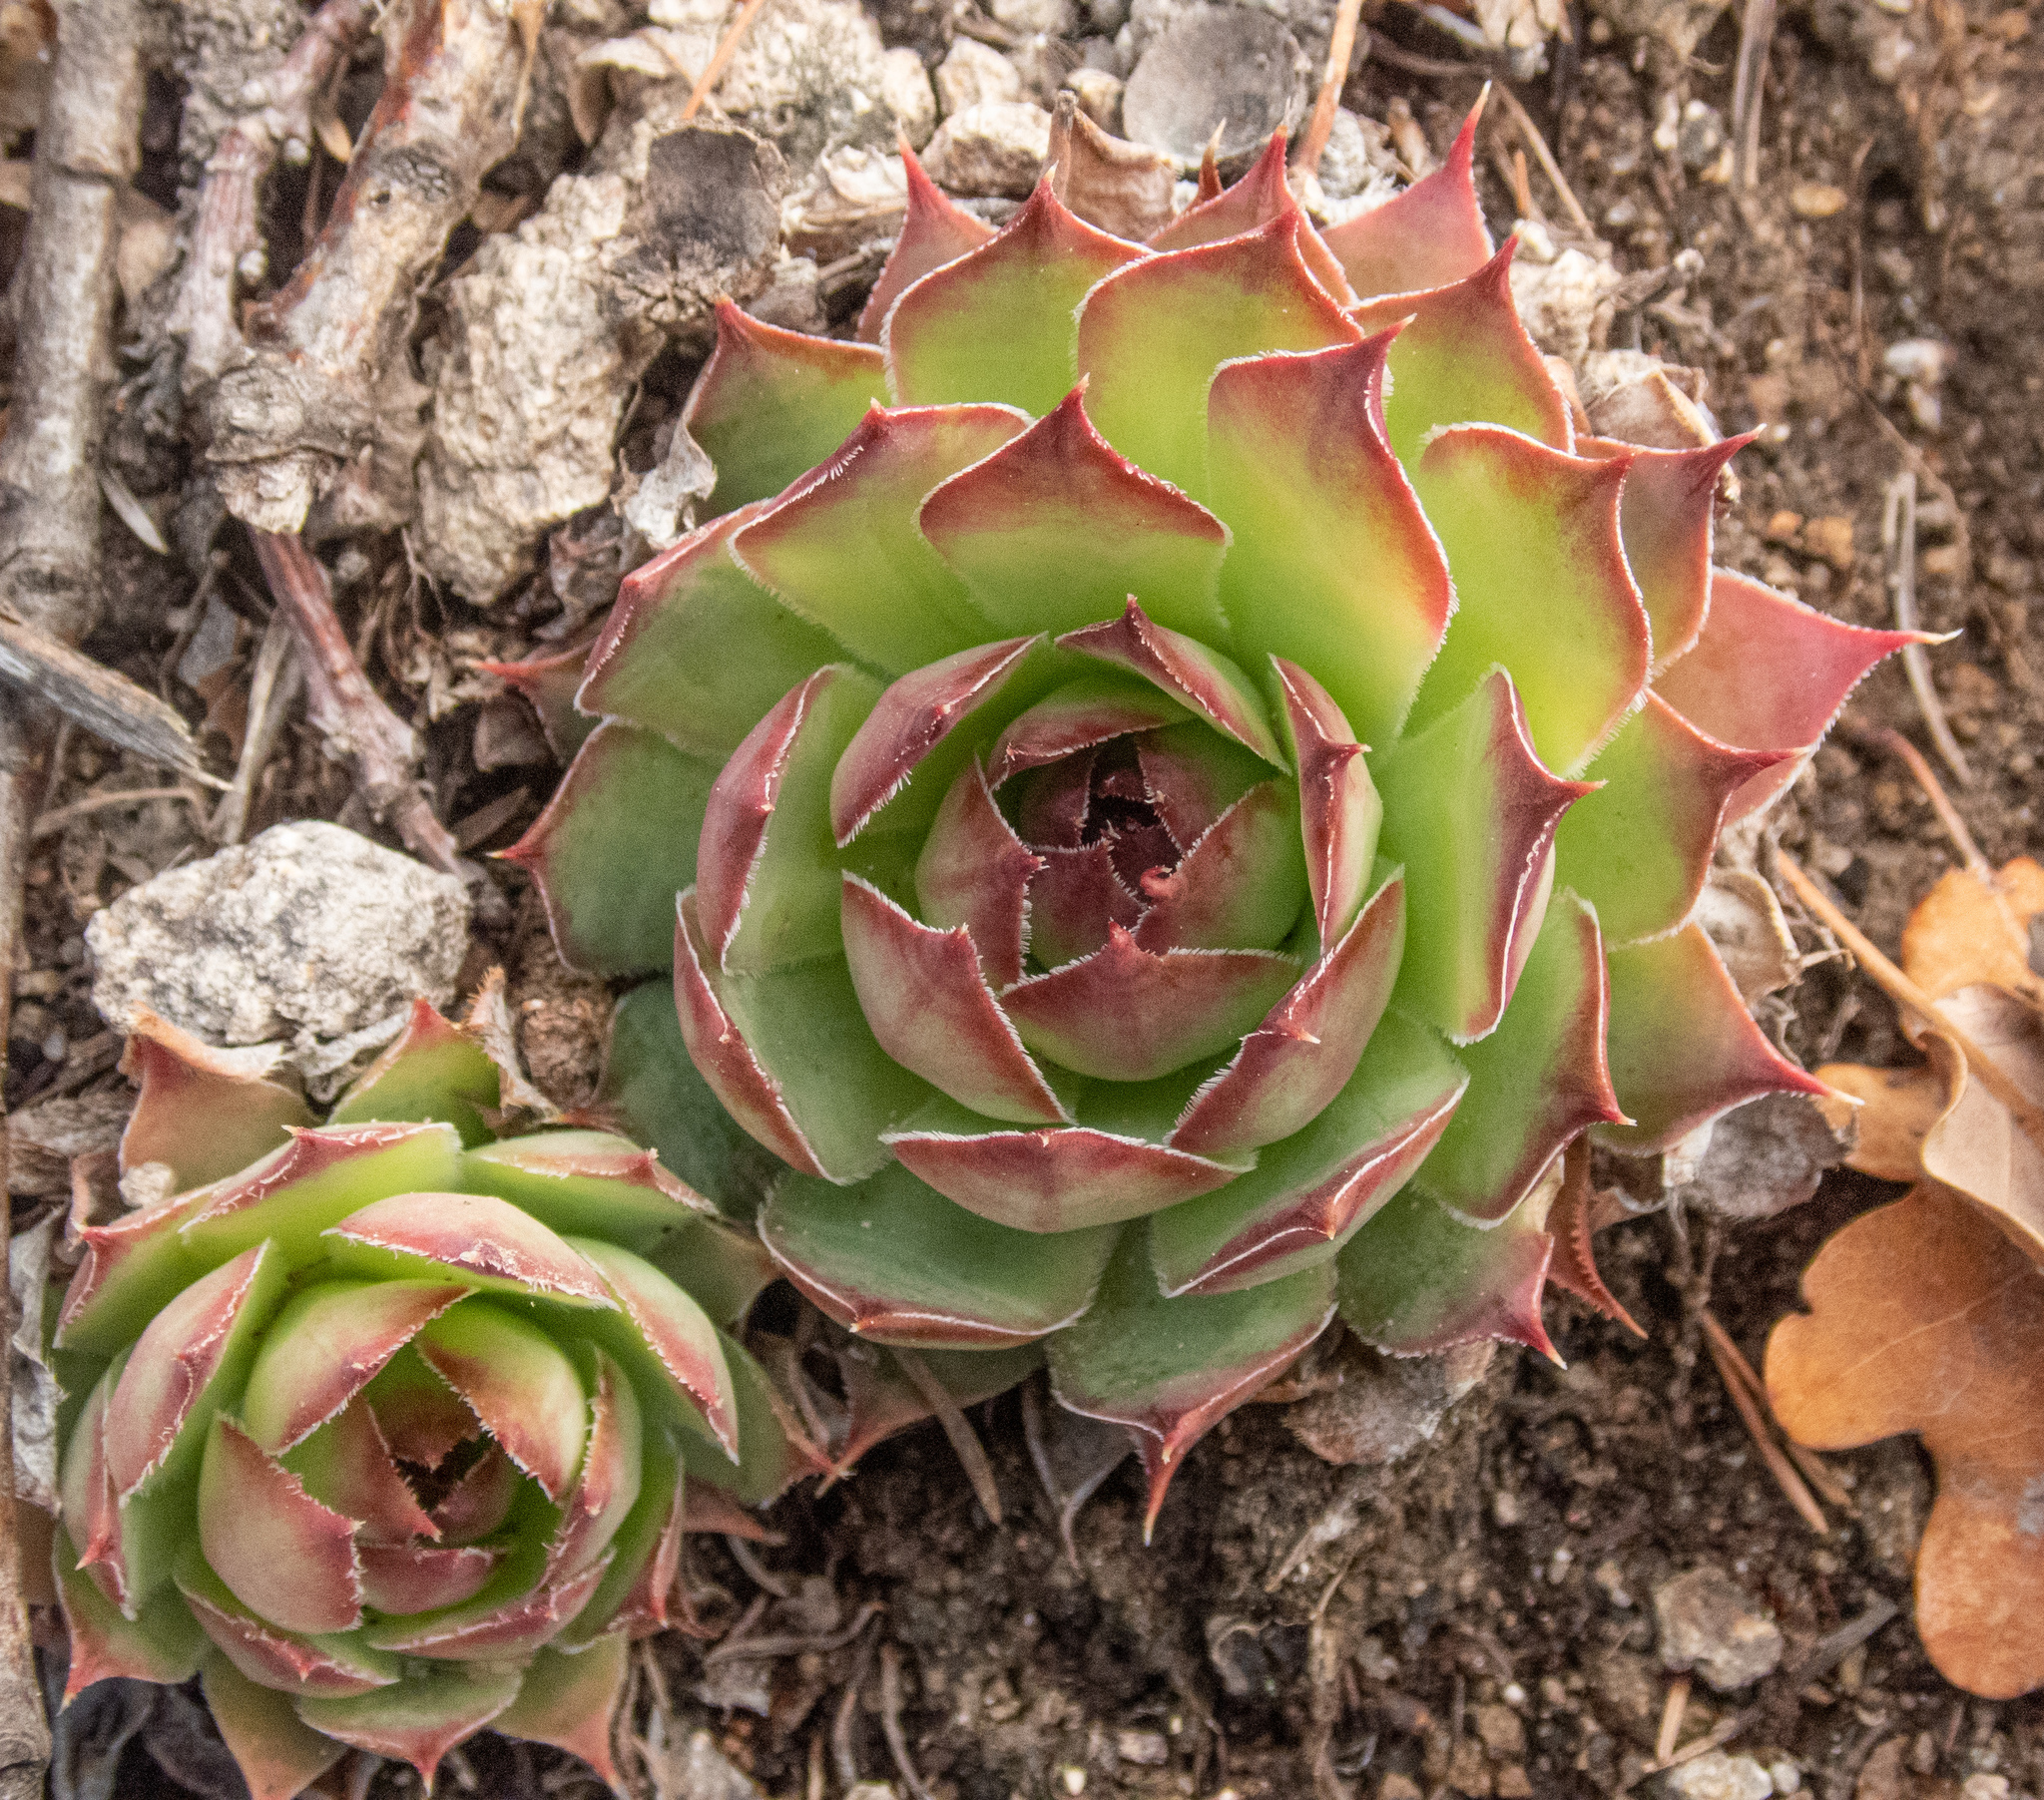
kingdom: Plantae
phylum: Tracheophyta
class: Magnoliopsida
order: Saxifragales
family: Crassulaceae
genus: Sempervivum
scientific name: Sempervivum tectorum
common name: House-leek
